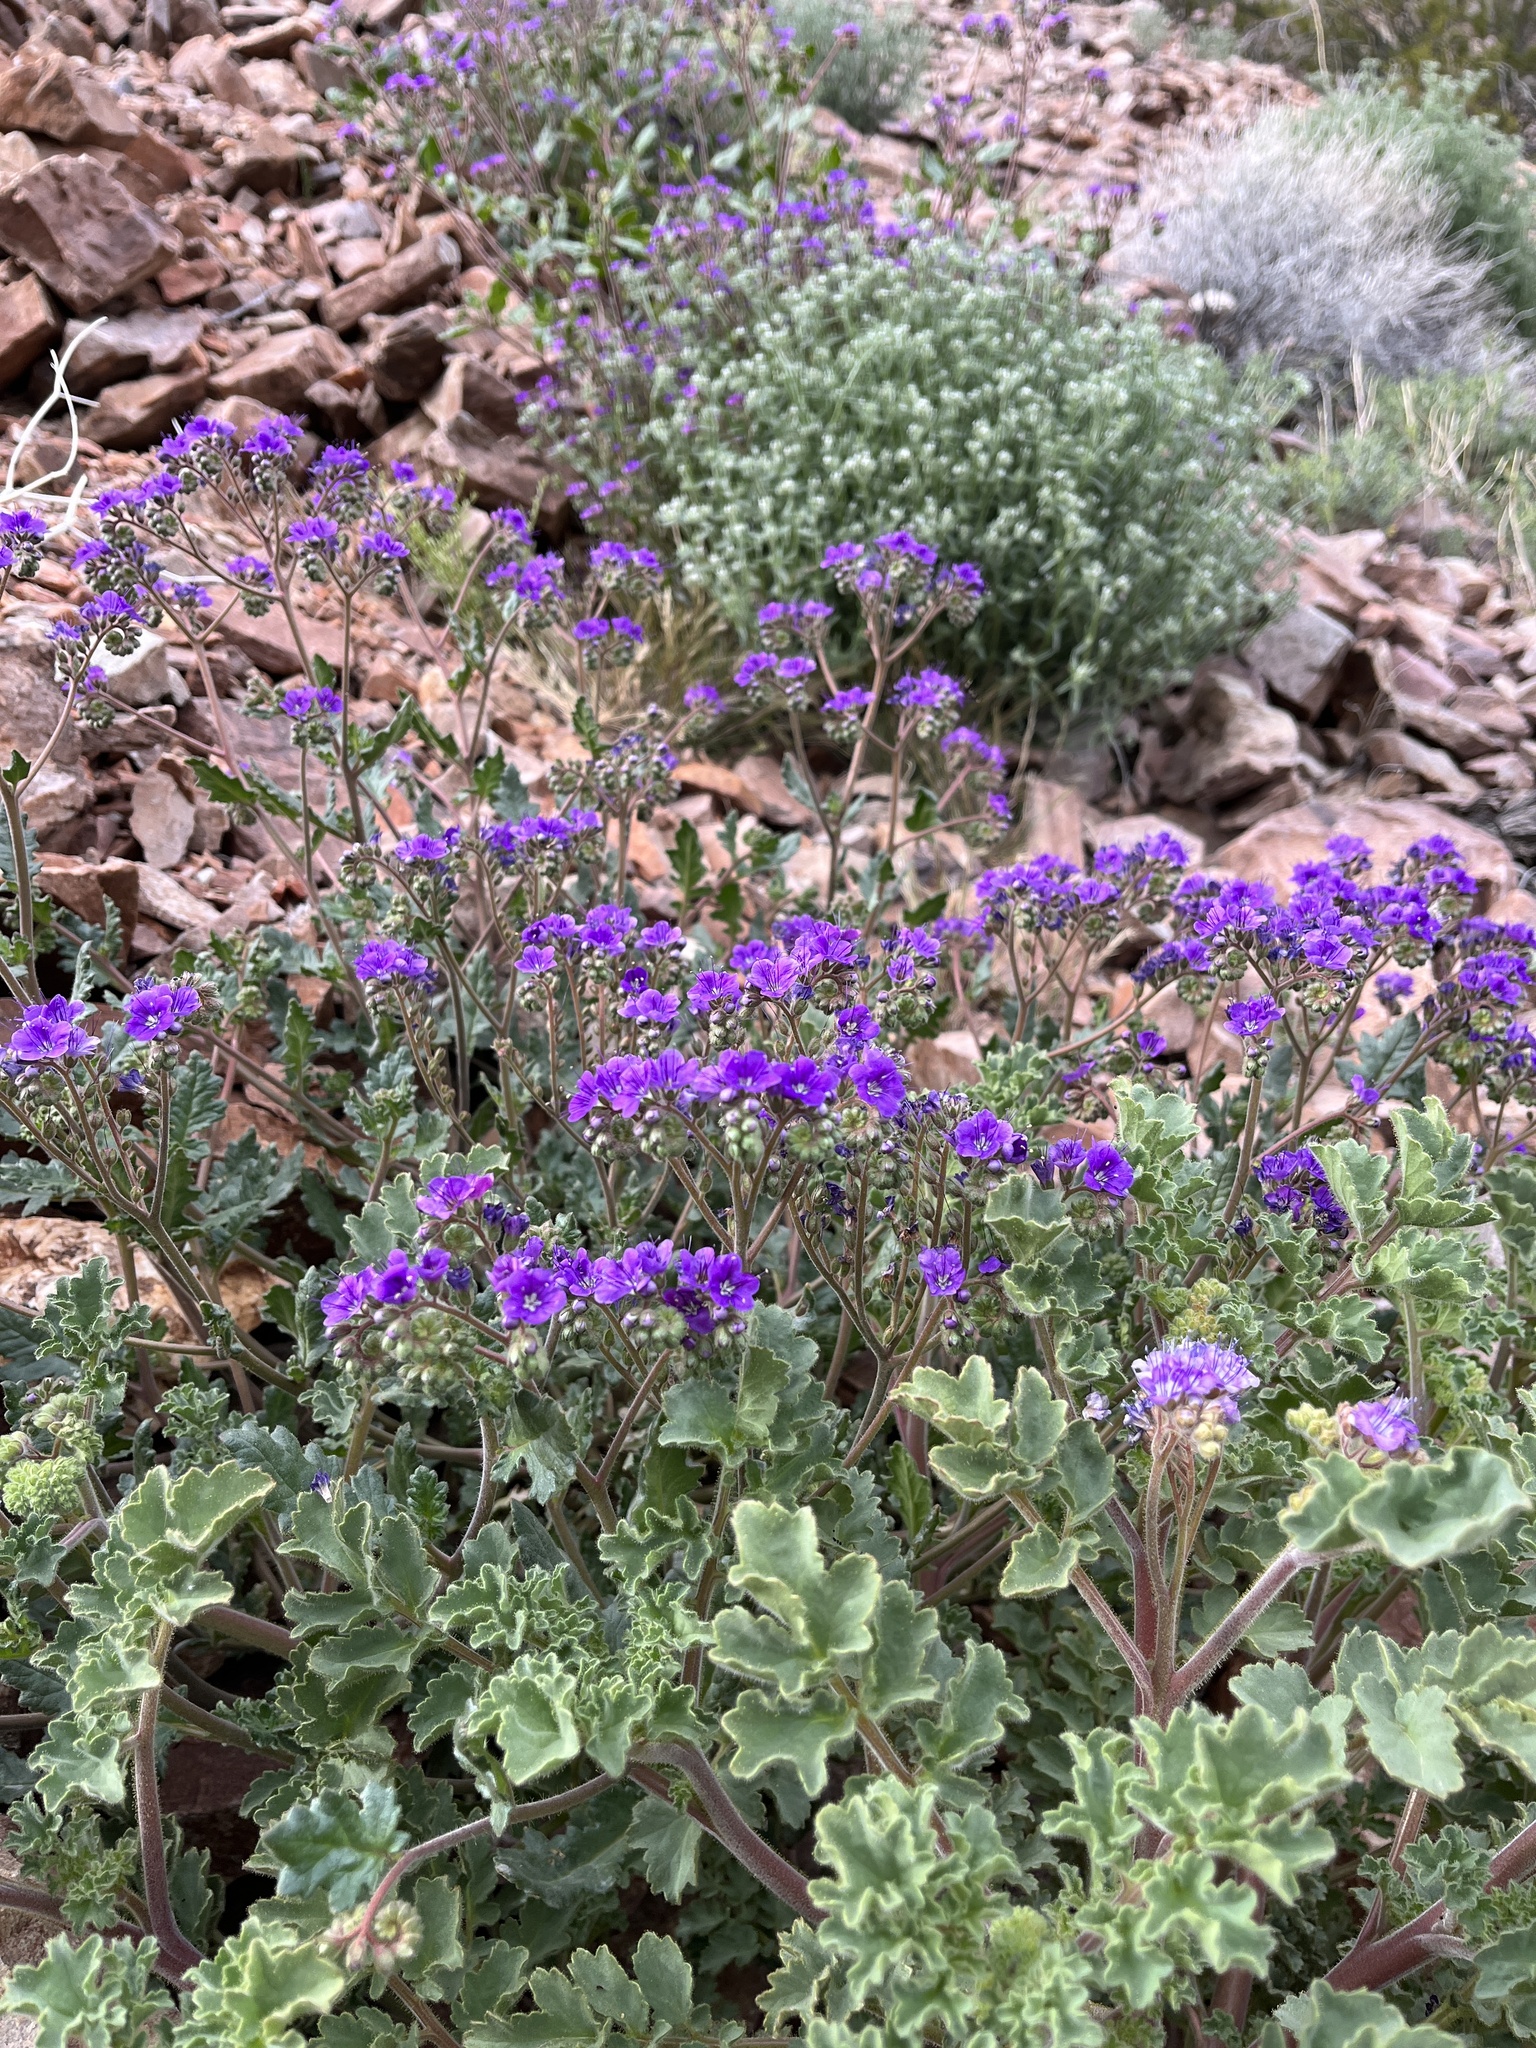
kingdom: Plantae
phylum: Tracheophyta
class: Magnoliopsida
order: Boraginales
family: Hydrophyllaceae
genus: Phacelia
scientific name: Phacelia pedicellata
